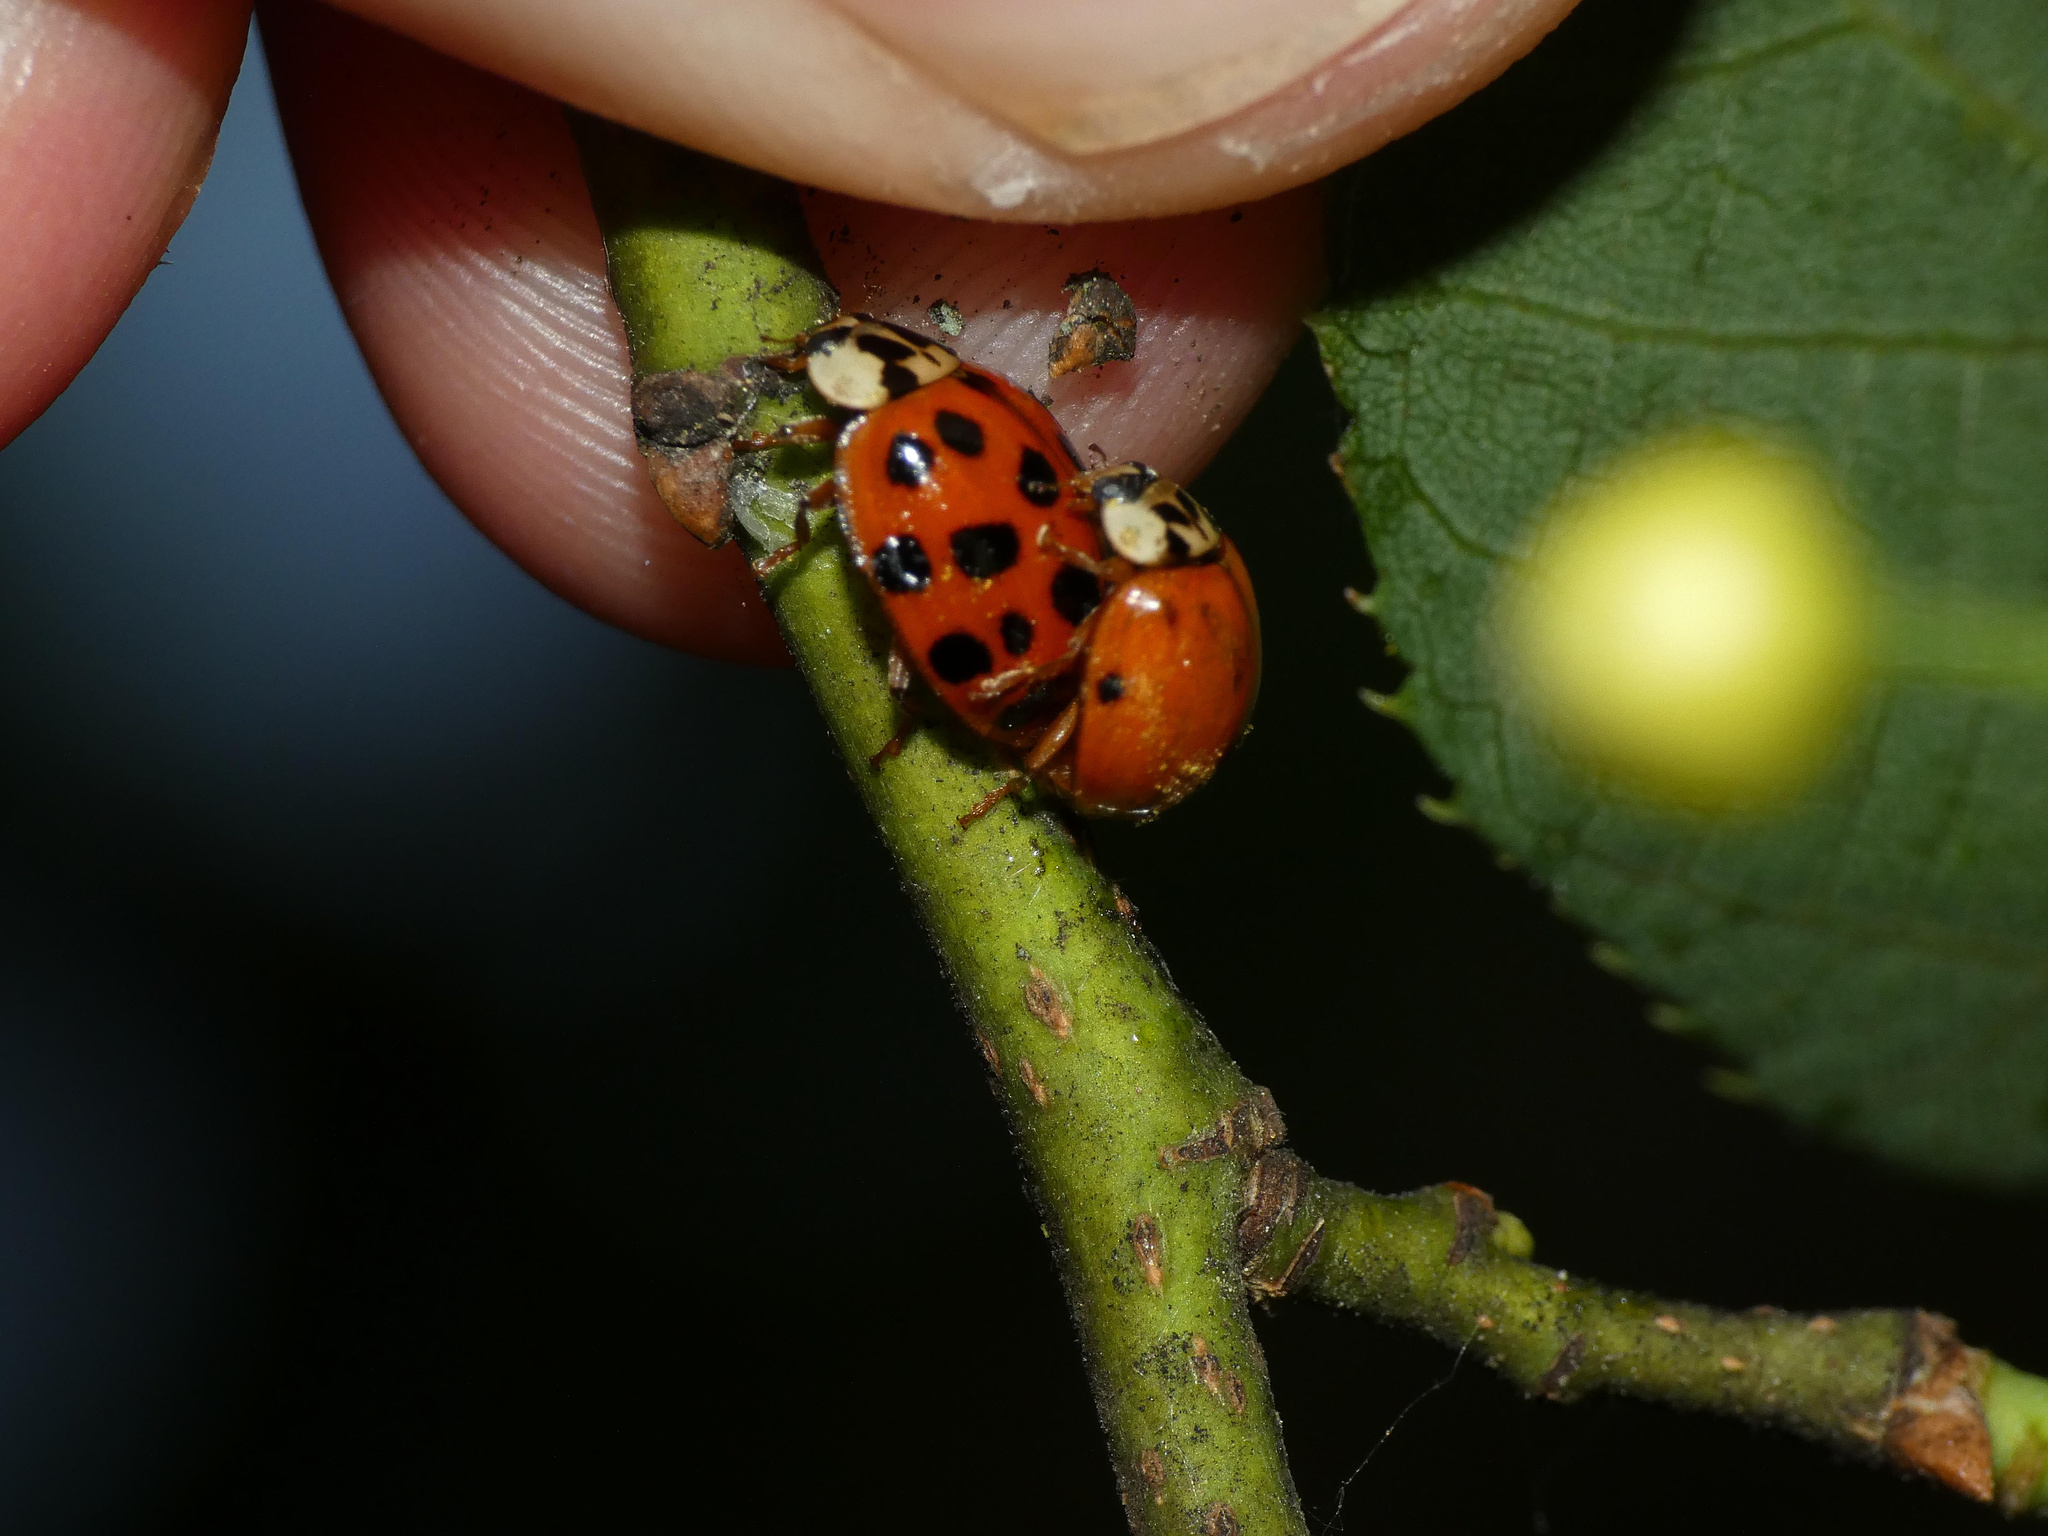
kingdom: Animalia
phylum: Arthropoda
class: Insecta
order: Coleoptera
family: Coccinellidae
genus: Harmonia
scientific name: Harmonia axyridis
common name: Harlequin ladybird
